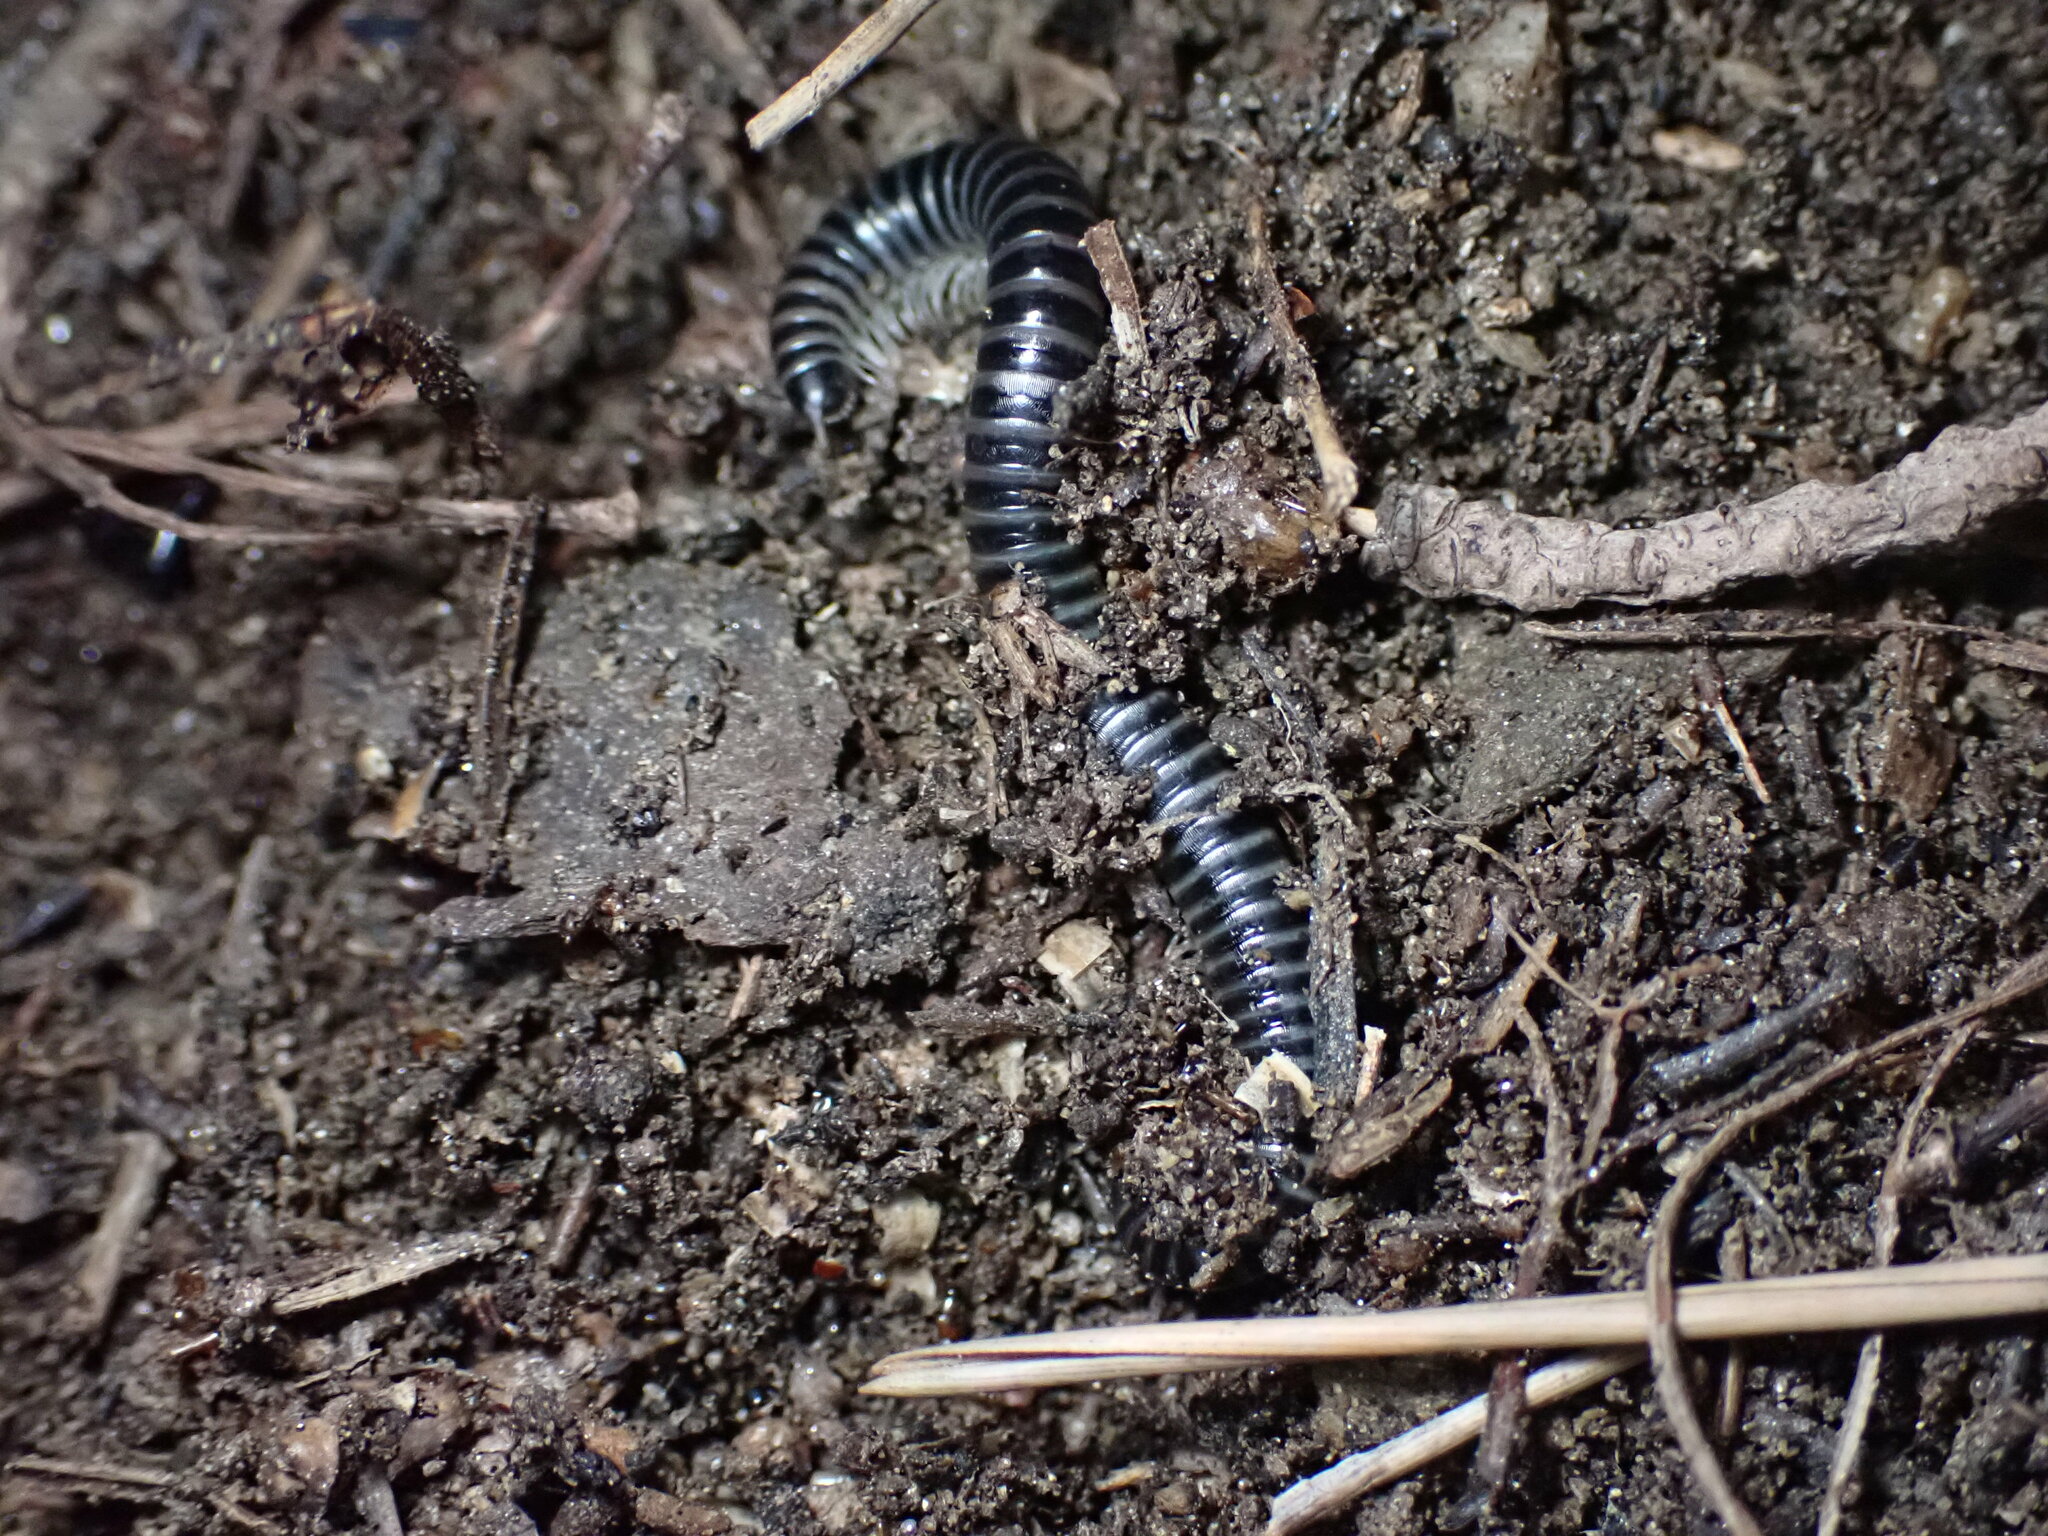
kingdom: Animalia
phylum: Arthropoda
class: Diplopoda
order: Julida
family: Julidae
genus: Ommatoiulus
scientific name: Ommatoiulus sabulosus
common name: Striped millipede
